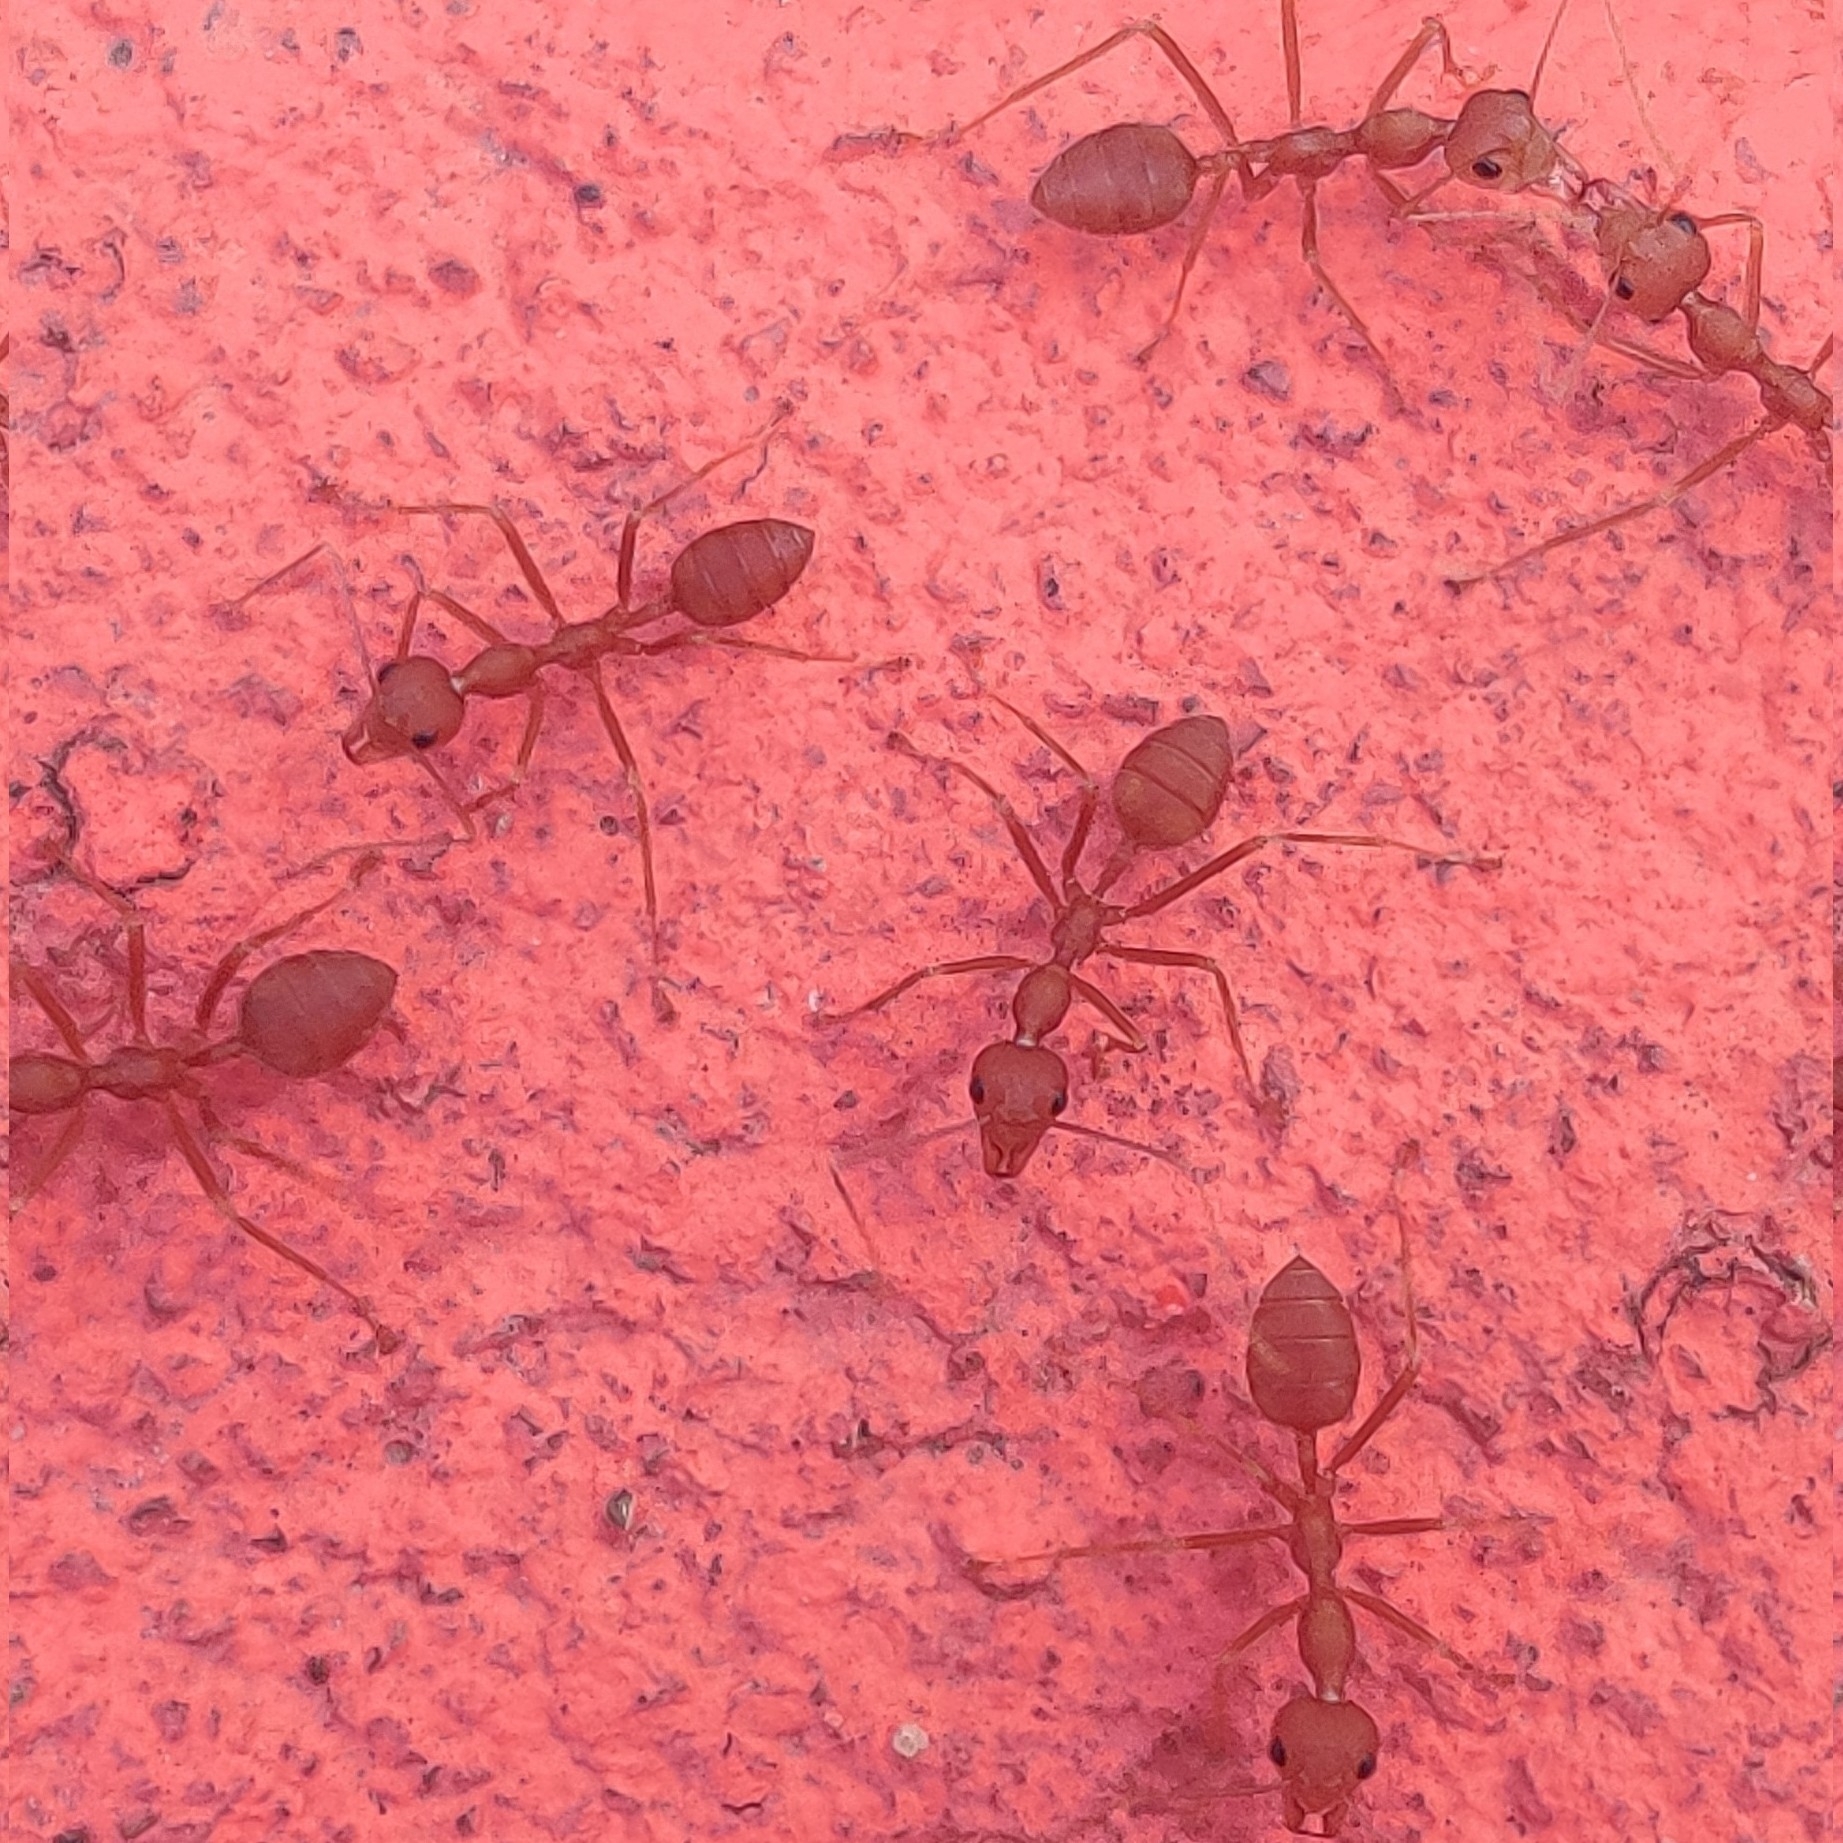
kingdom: Animalia
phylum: Arthropoda
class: Insecta
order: Hymenoptera
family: Formicidae
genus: Oecophylla
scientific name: Oecophylla smaragdina
